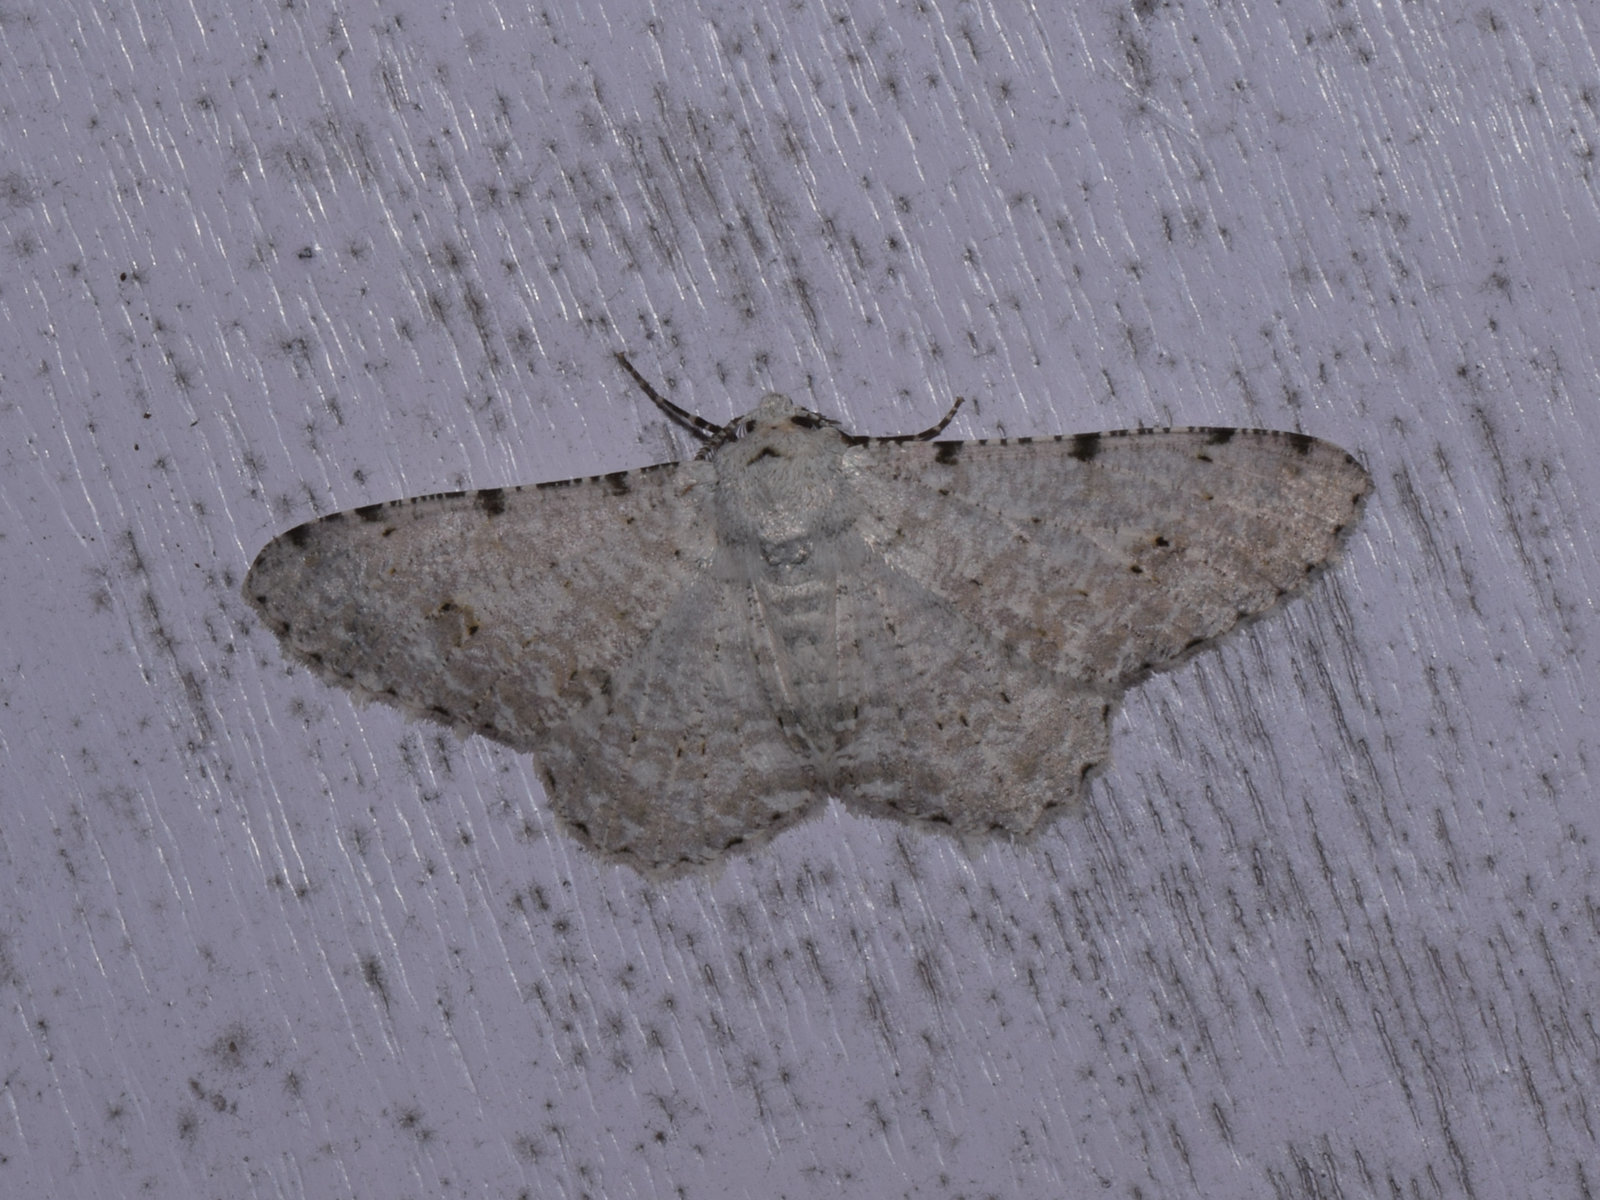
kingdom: Animalia
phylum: Arthropoda
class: Insecta
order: Lepidoptera
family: Geometridae
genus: Lassaba
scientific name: Lassaba parvalbidaria
